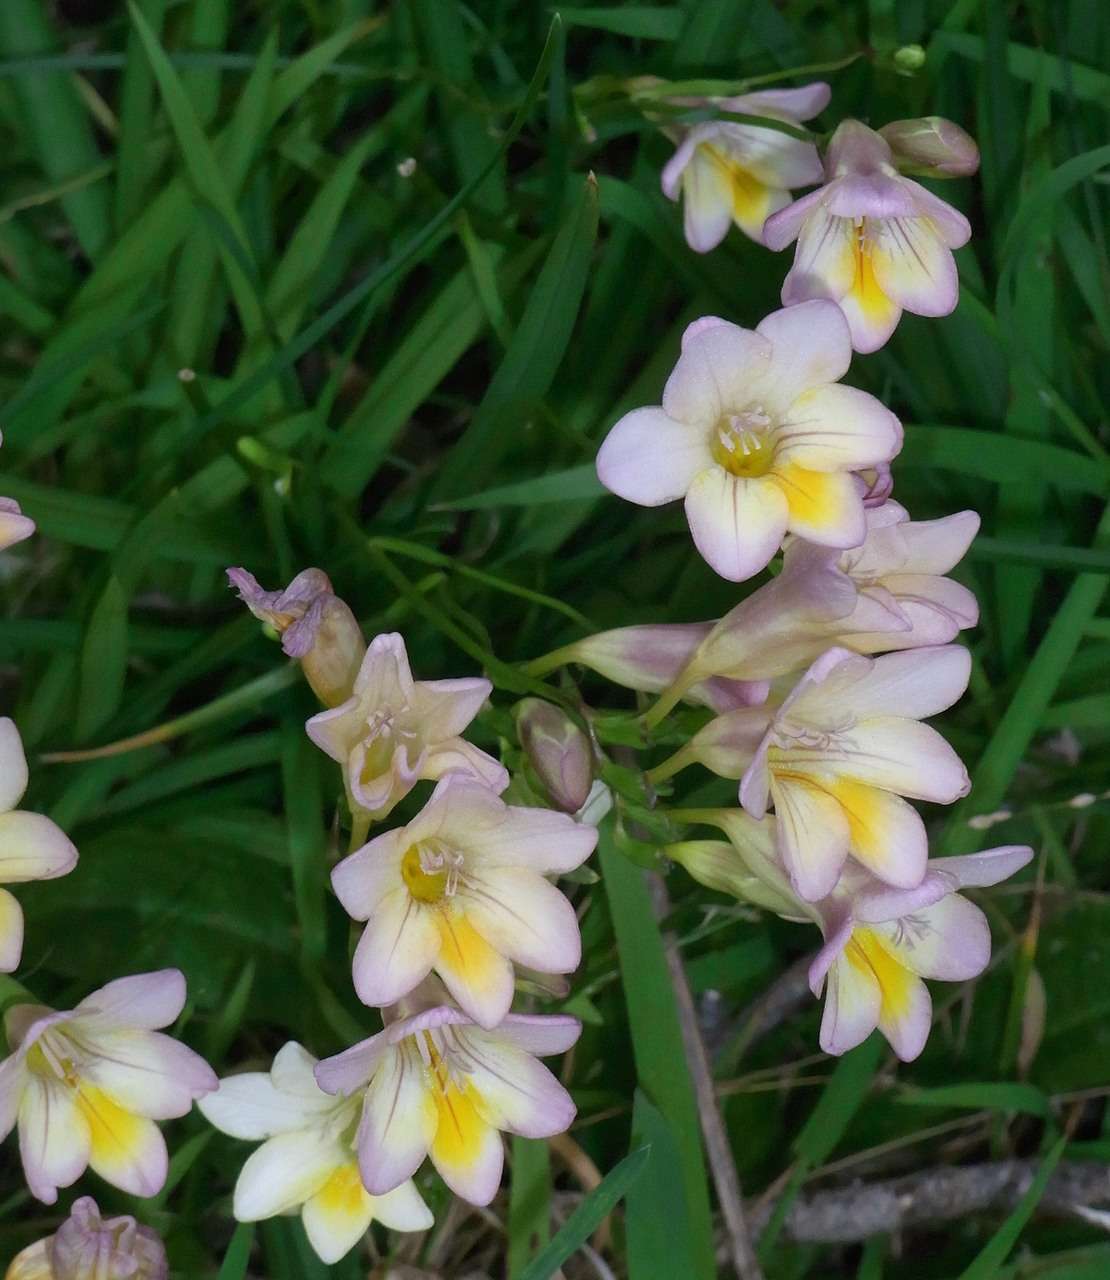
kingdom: Plantae
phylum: Tracheophyta
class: Liliopsida
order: Asparagales
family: Iridaceae
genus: Freesia
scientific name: Freesia
